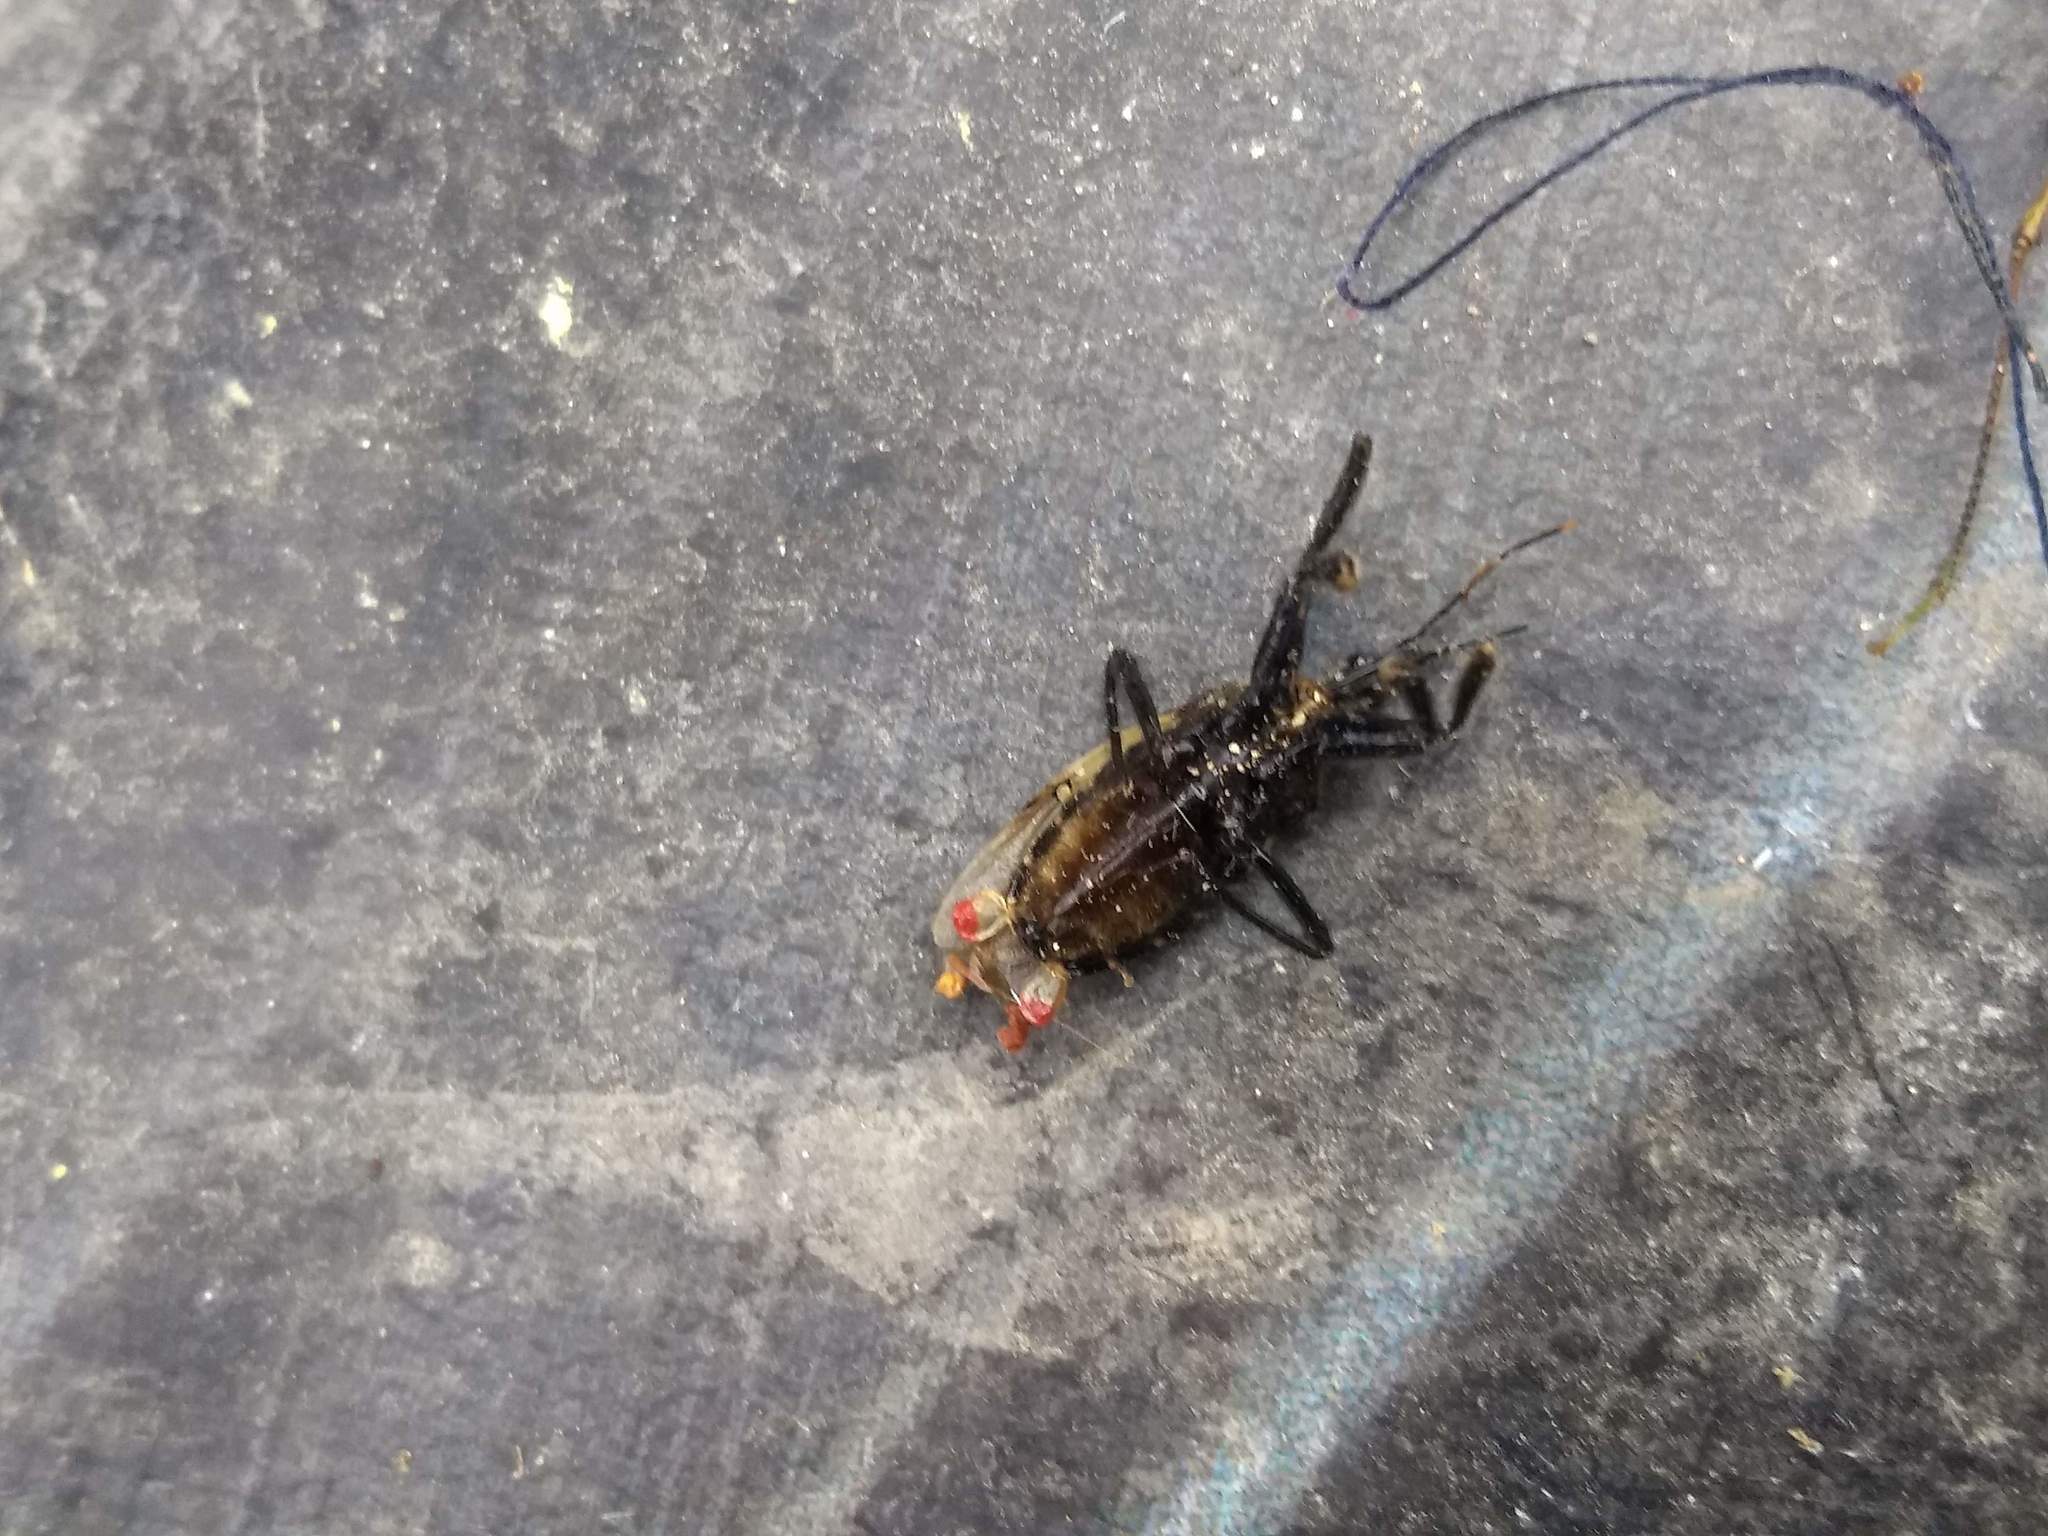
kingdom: Animalia
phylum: Arthropoda
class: Insecta
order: Hemiptera
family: Reduviidae
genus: Apiomerus
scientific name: Apiomerus ochropterus
